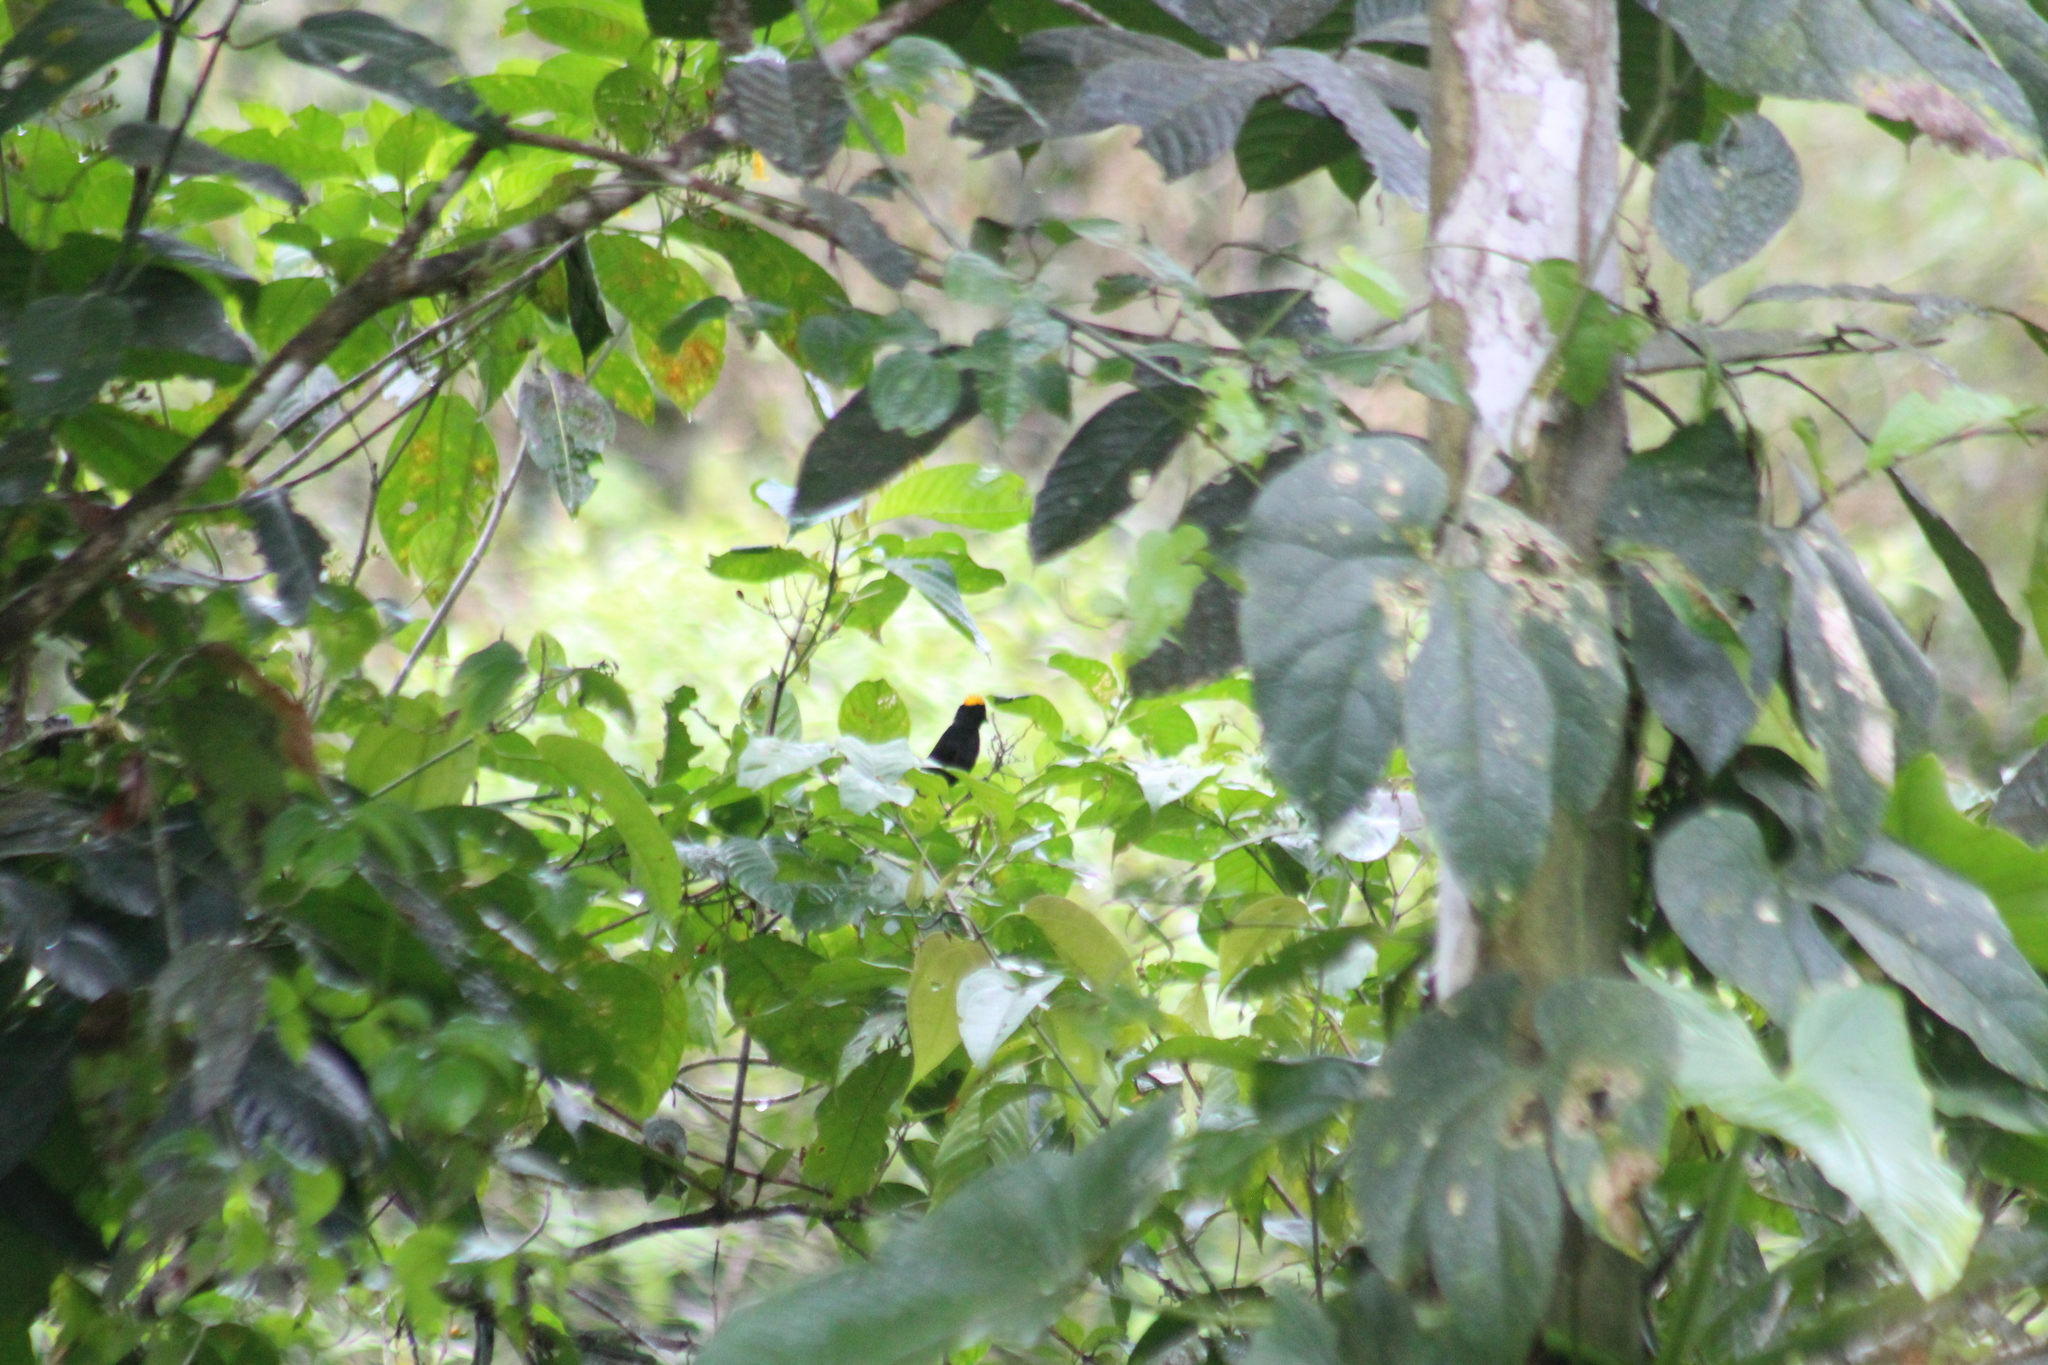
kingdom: Animalia
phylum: Chordata
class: Aves
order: Passeriformes
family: Thraupidae
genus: Tachyphonus
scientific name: Tachyphonus delatrii
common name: Tawny-crested tanager
